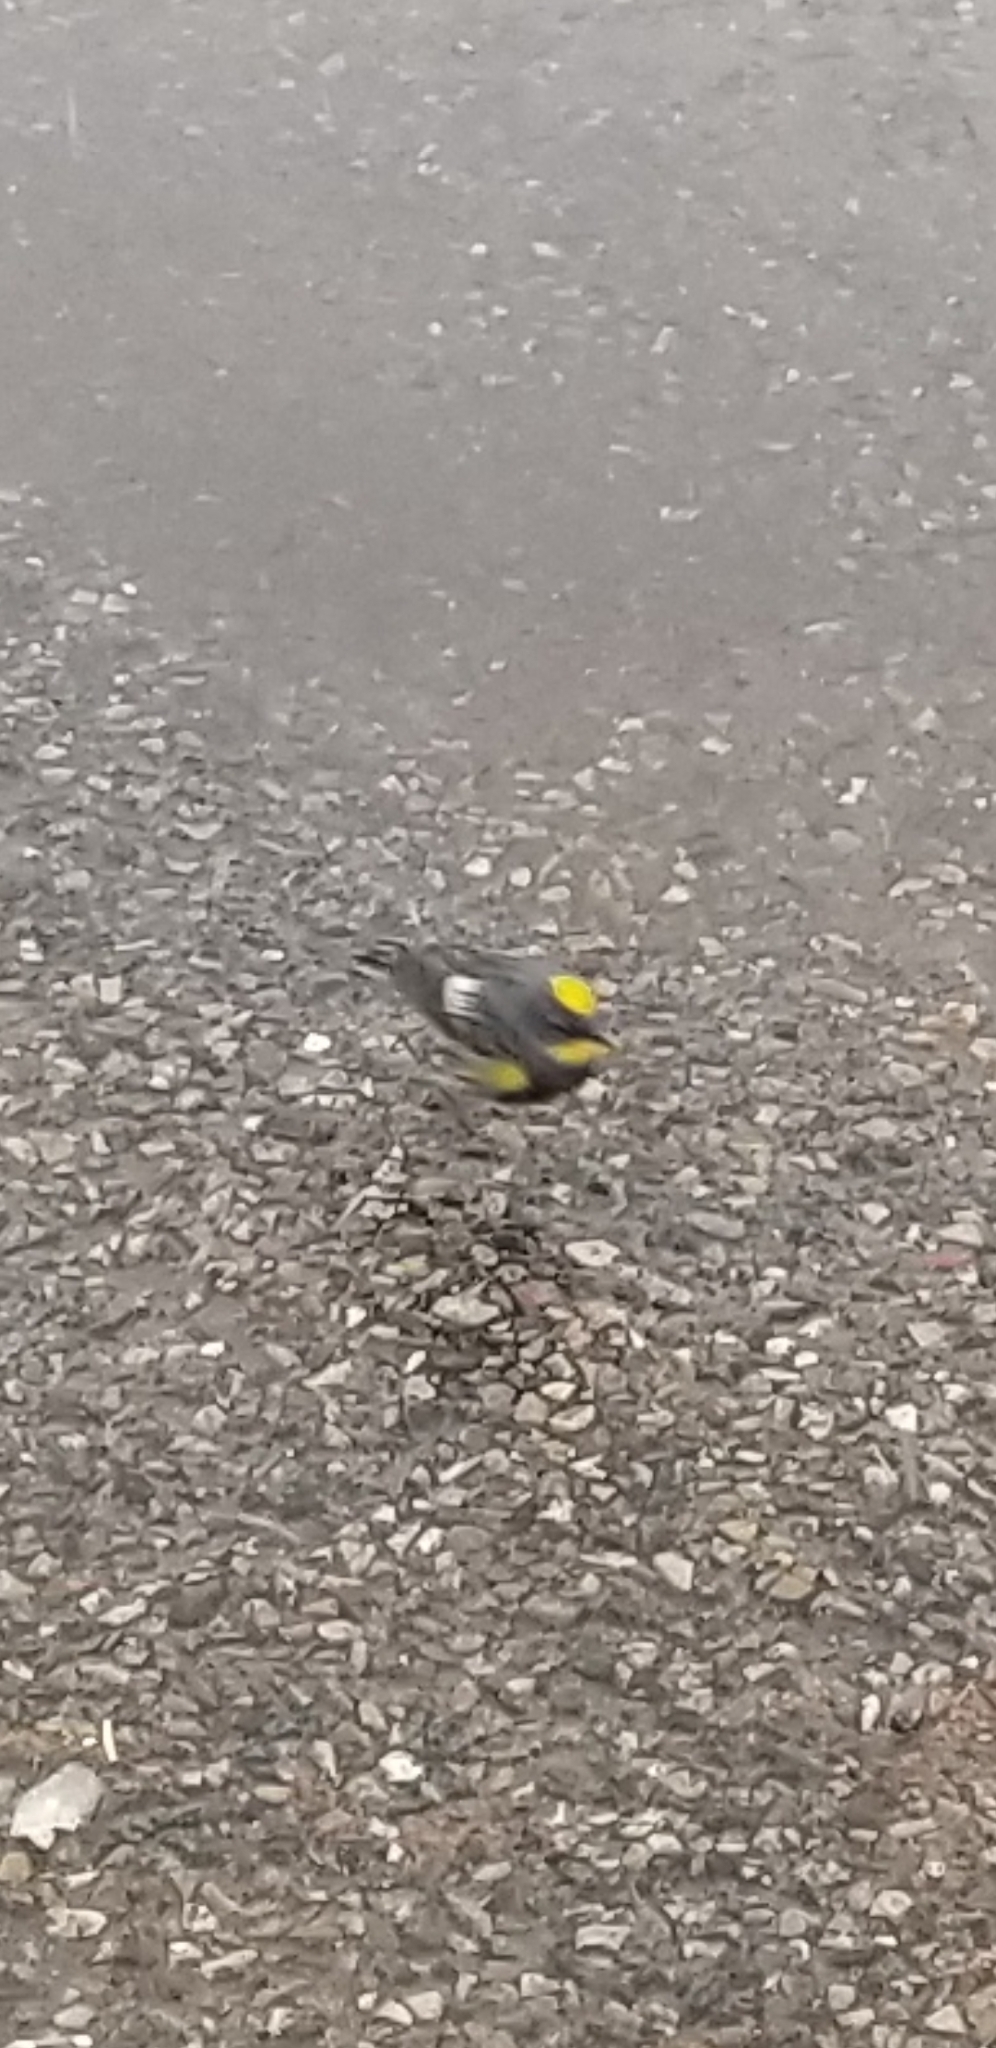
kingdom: Animalia
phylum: Chordata
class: Aves
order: Passeriformes
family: Parulidae
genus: Setophaga
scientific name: Setophaga auduboni
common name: Audubon's warbler
